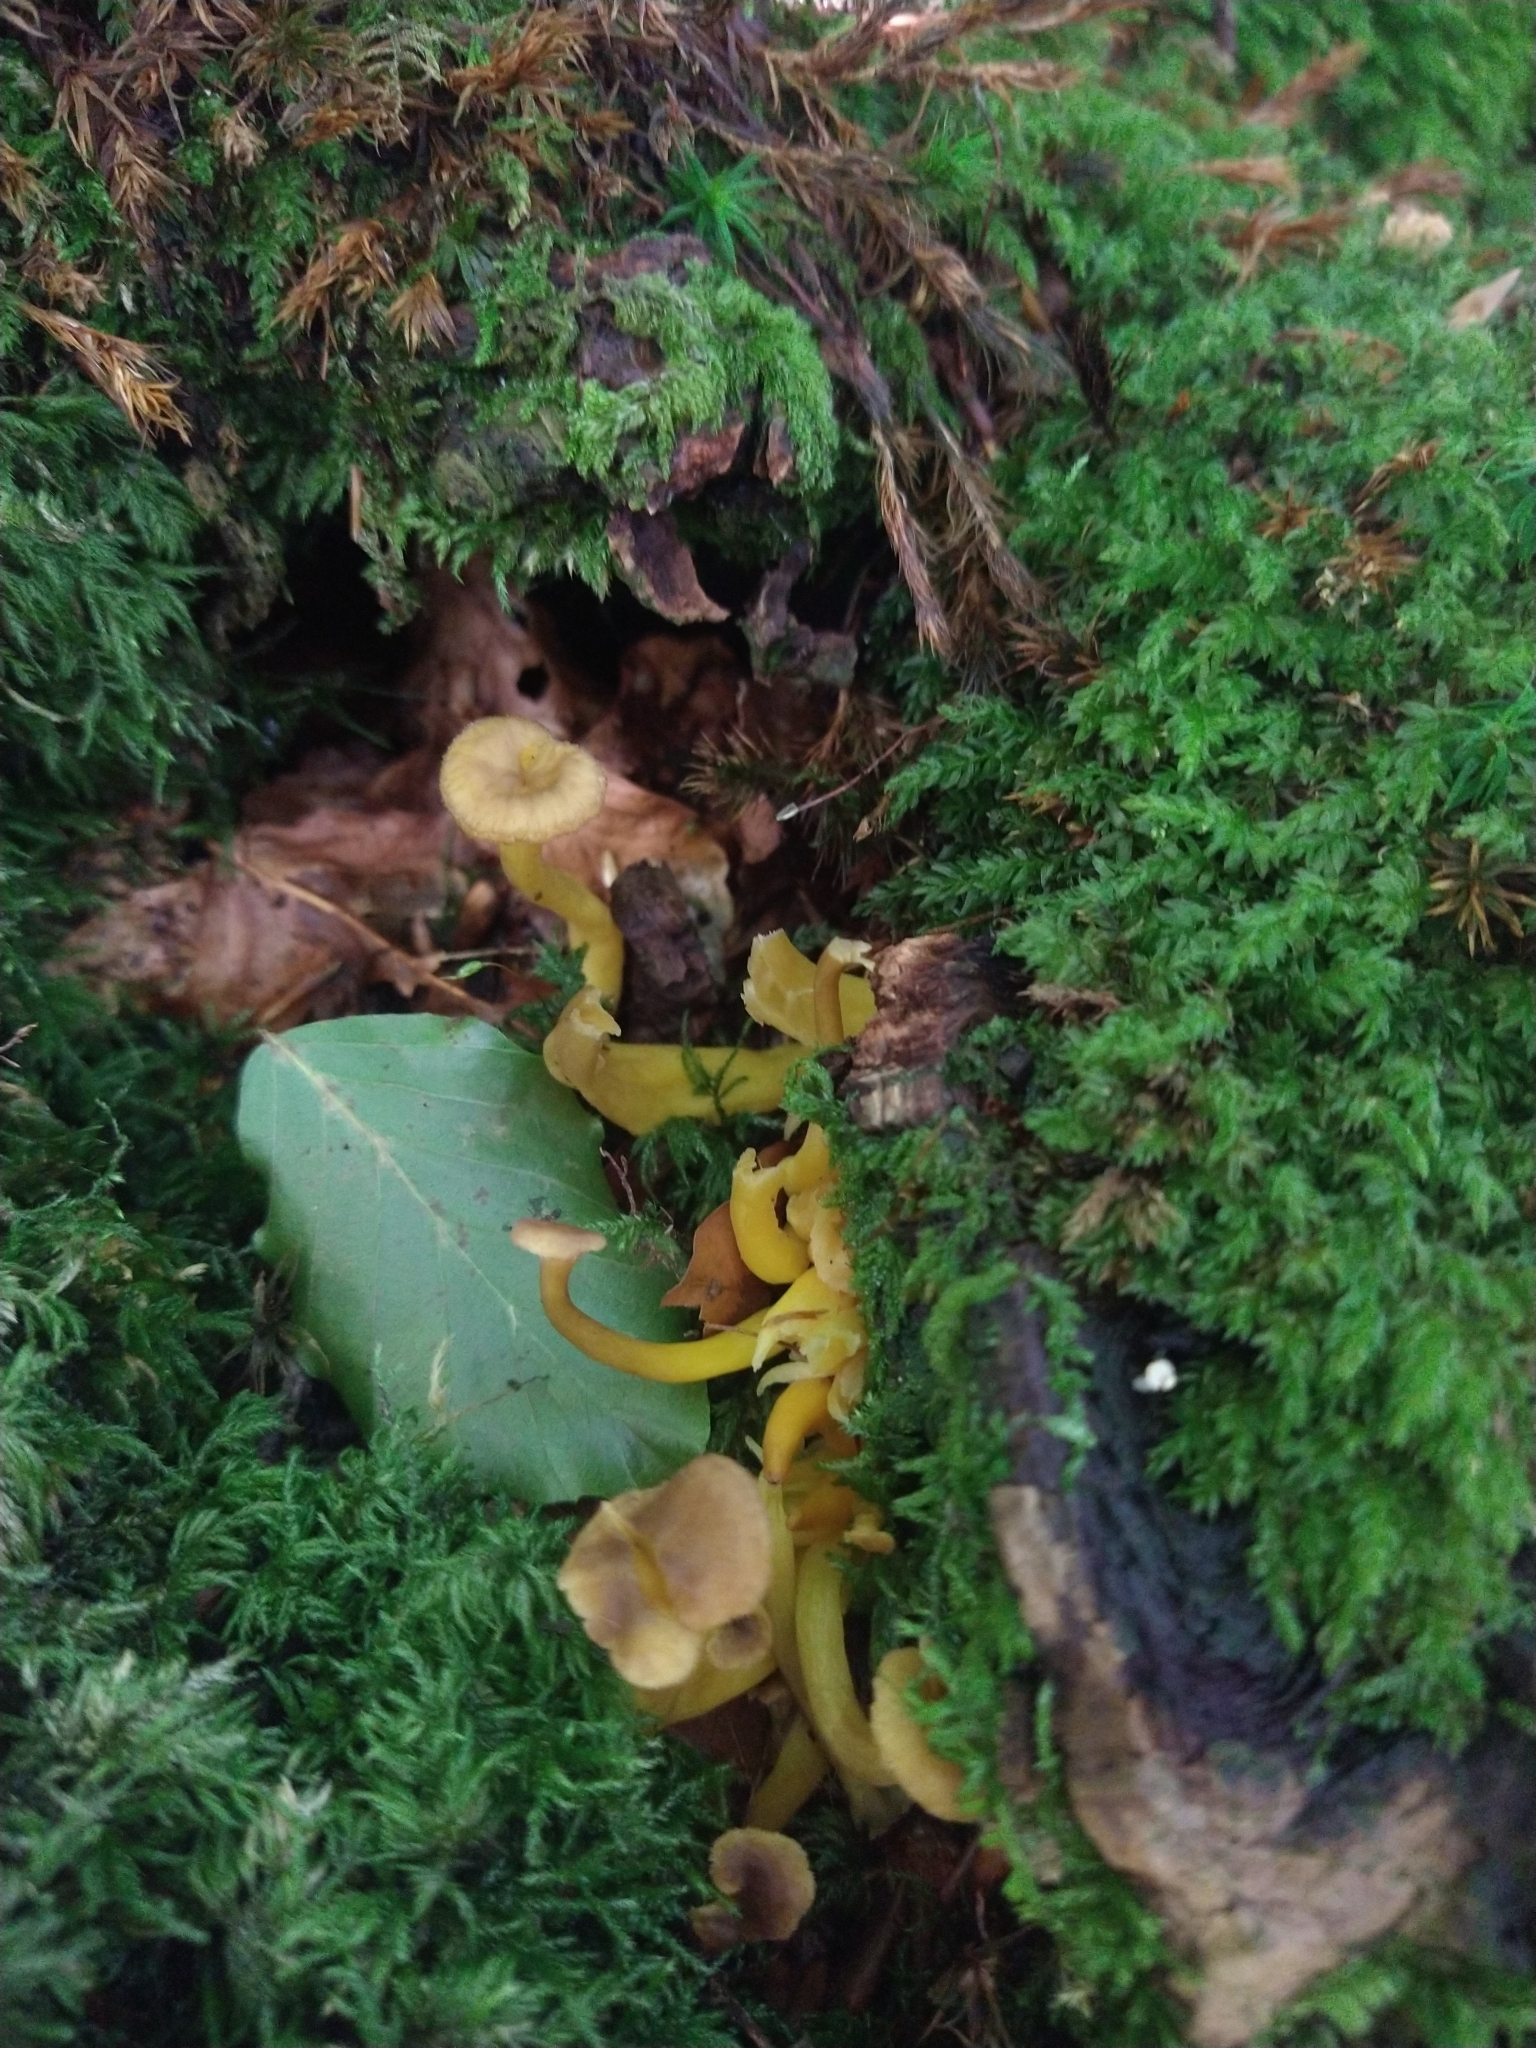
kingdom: Fungi
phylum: Basidiomycota
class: Agaricomycetes
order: Cantharellales
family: Hydnaceae
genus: Craterellus
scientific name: Craterellus tubaeformis
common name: Yellowfoot
